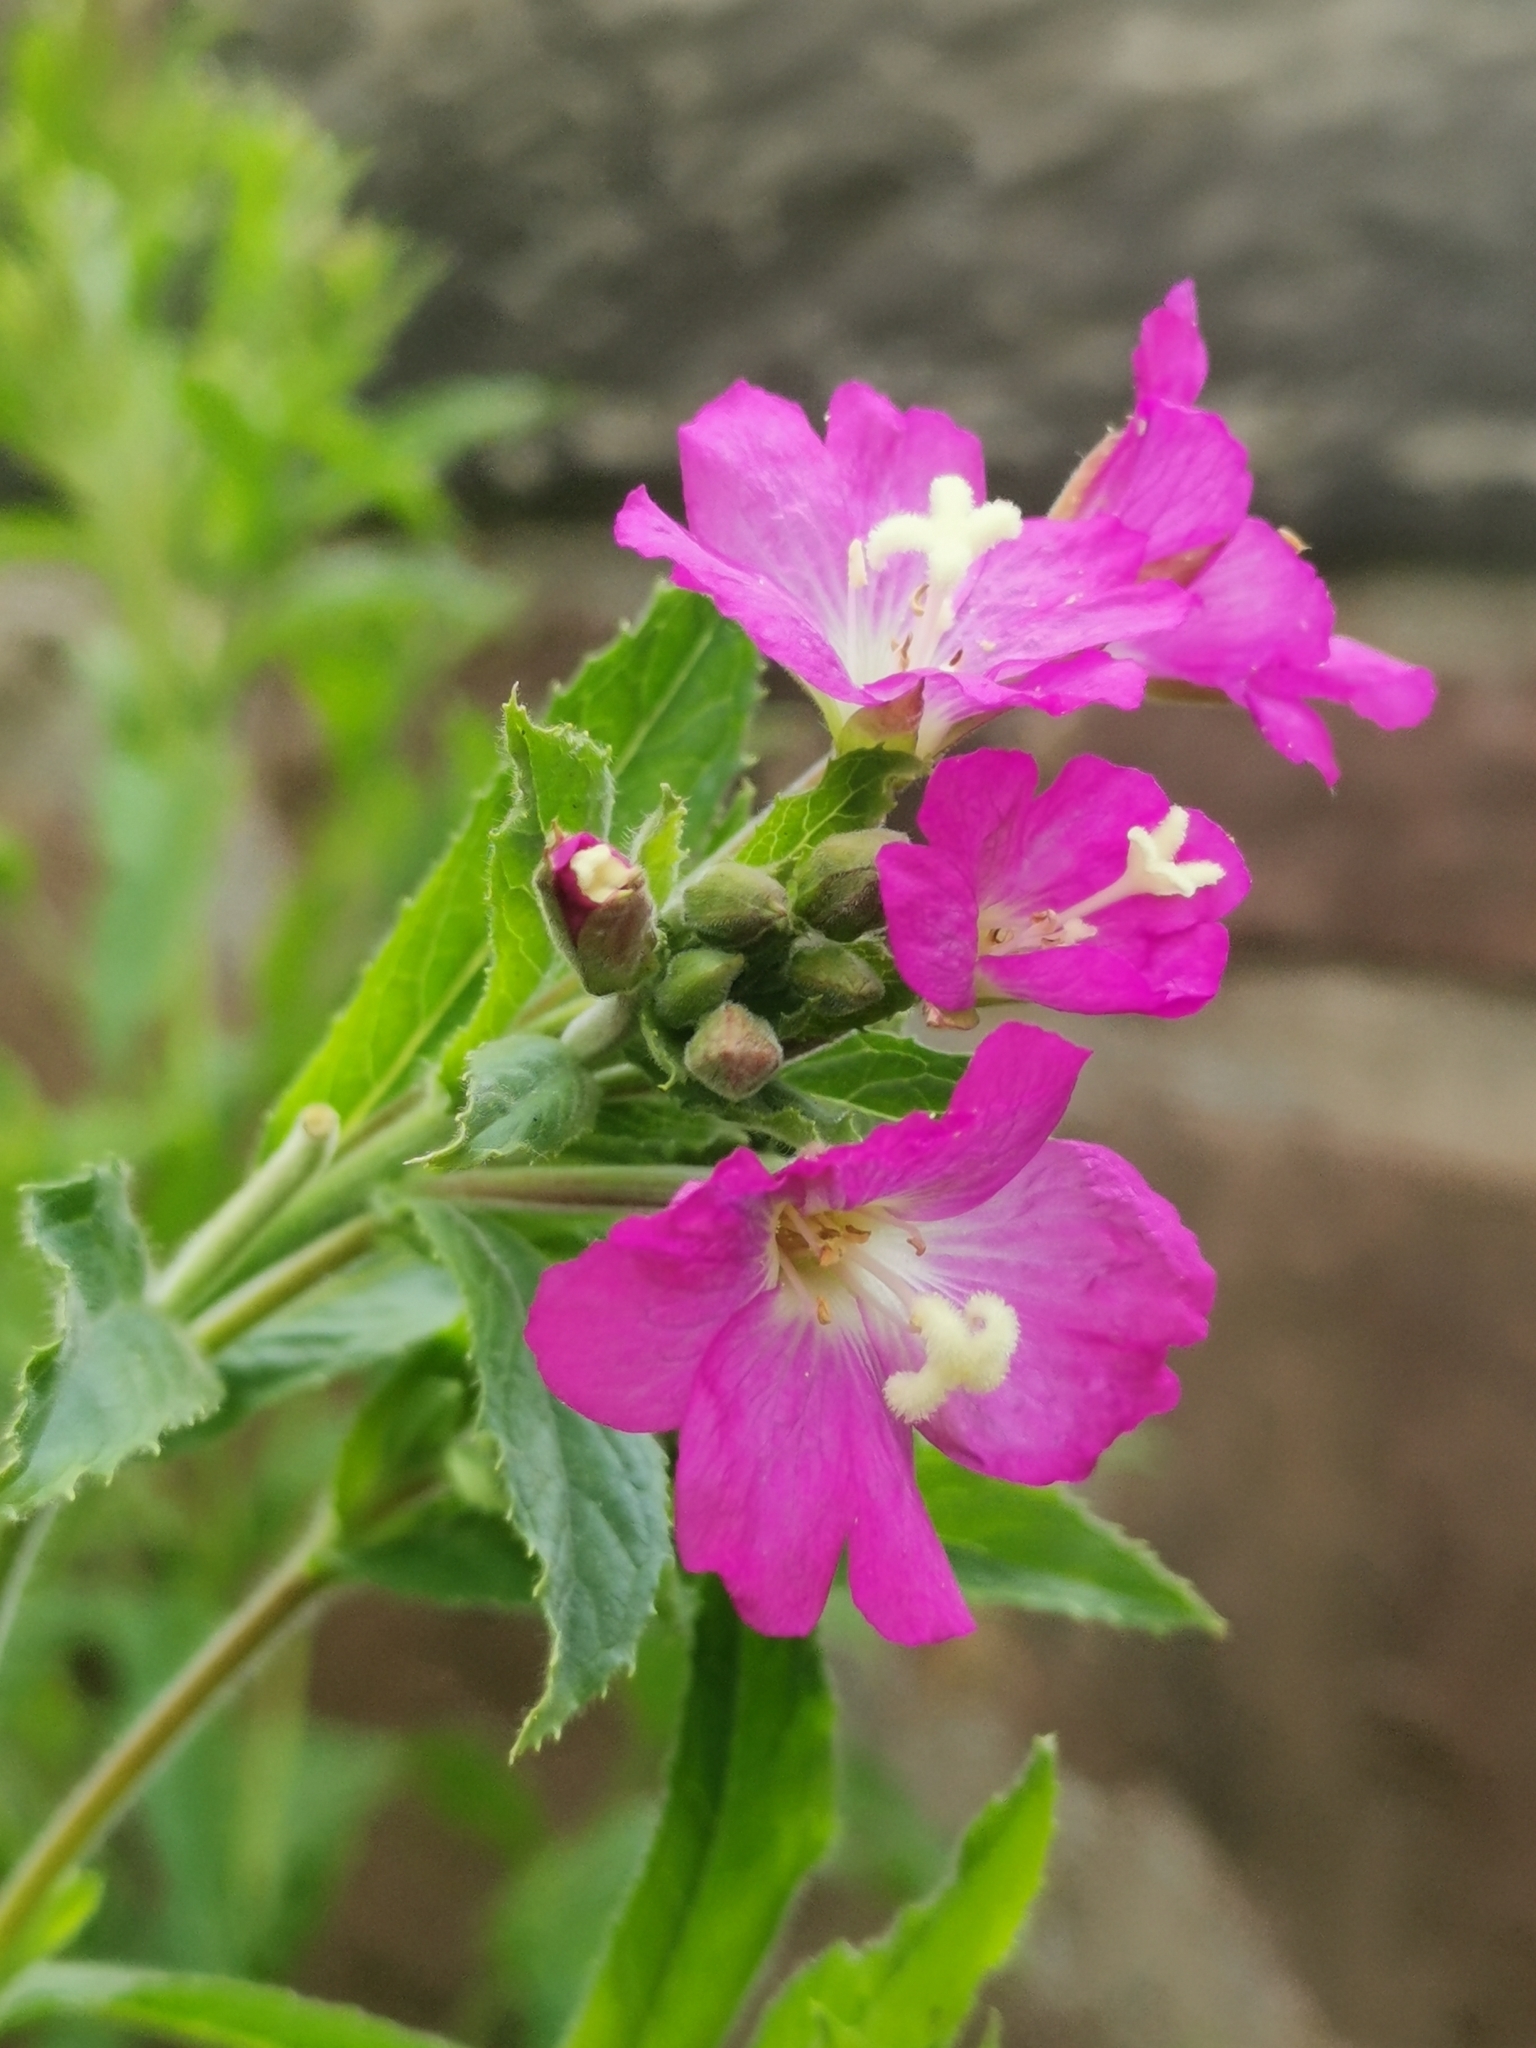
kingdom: Plantae
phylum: Tracheophyta
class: Magnoliopsida
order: Myrtales
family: Onagraceae
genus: Epilobium
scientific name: Epilobium hirsutum
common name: Great willowherb
